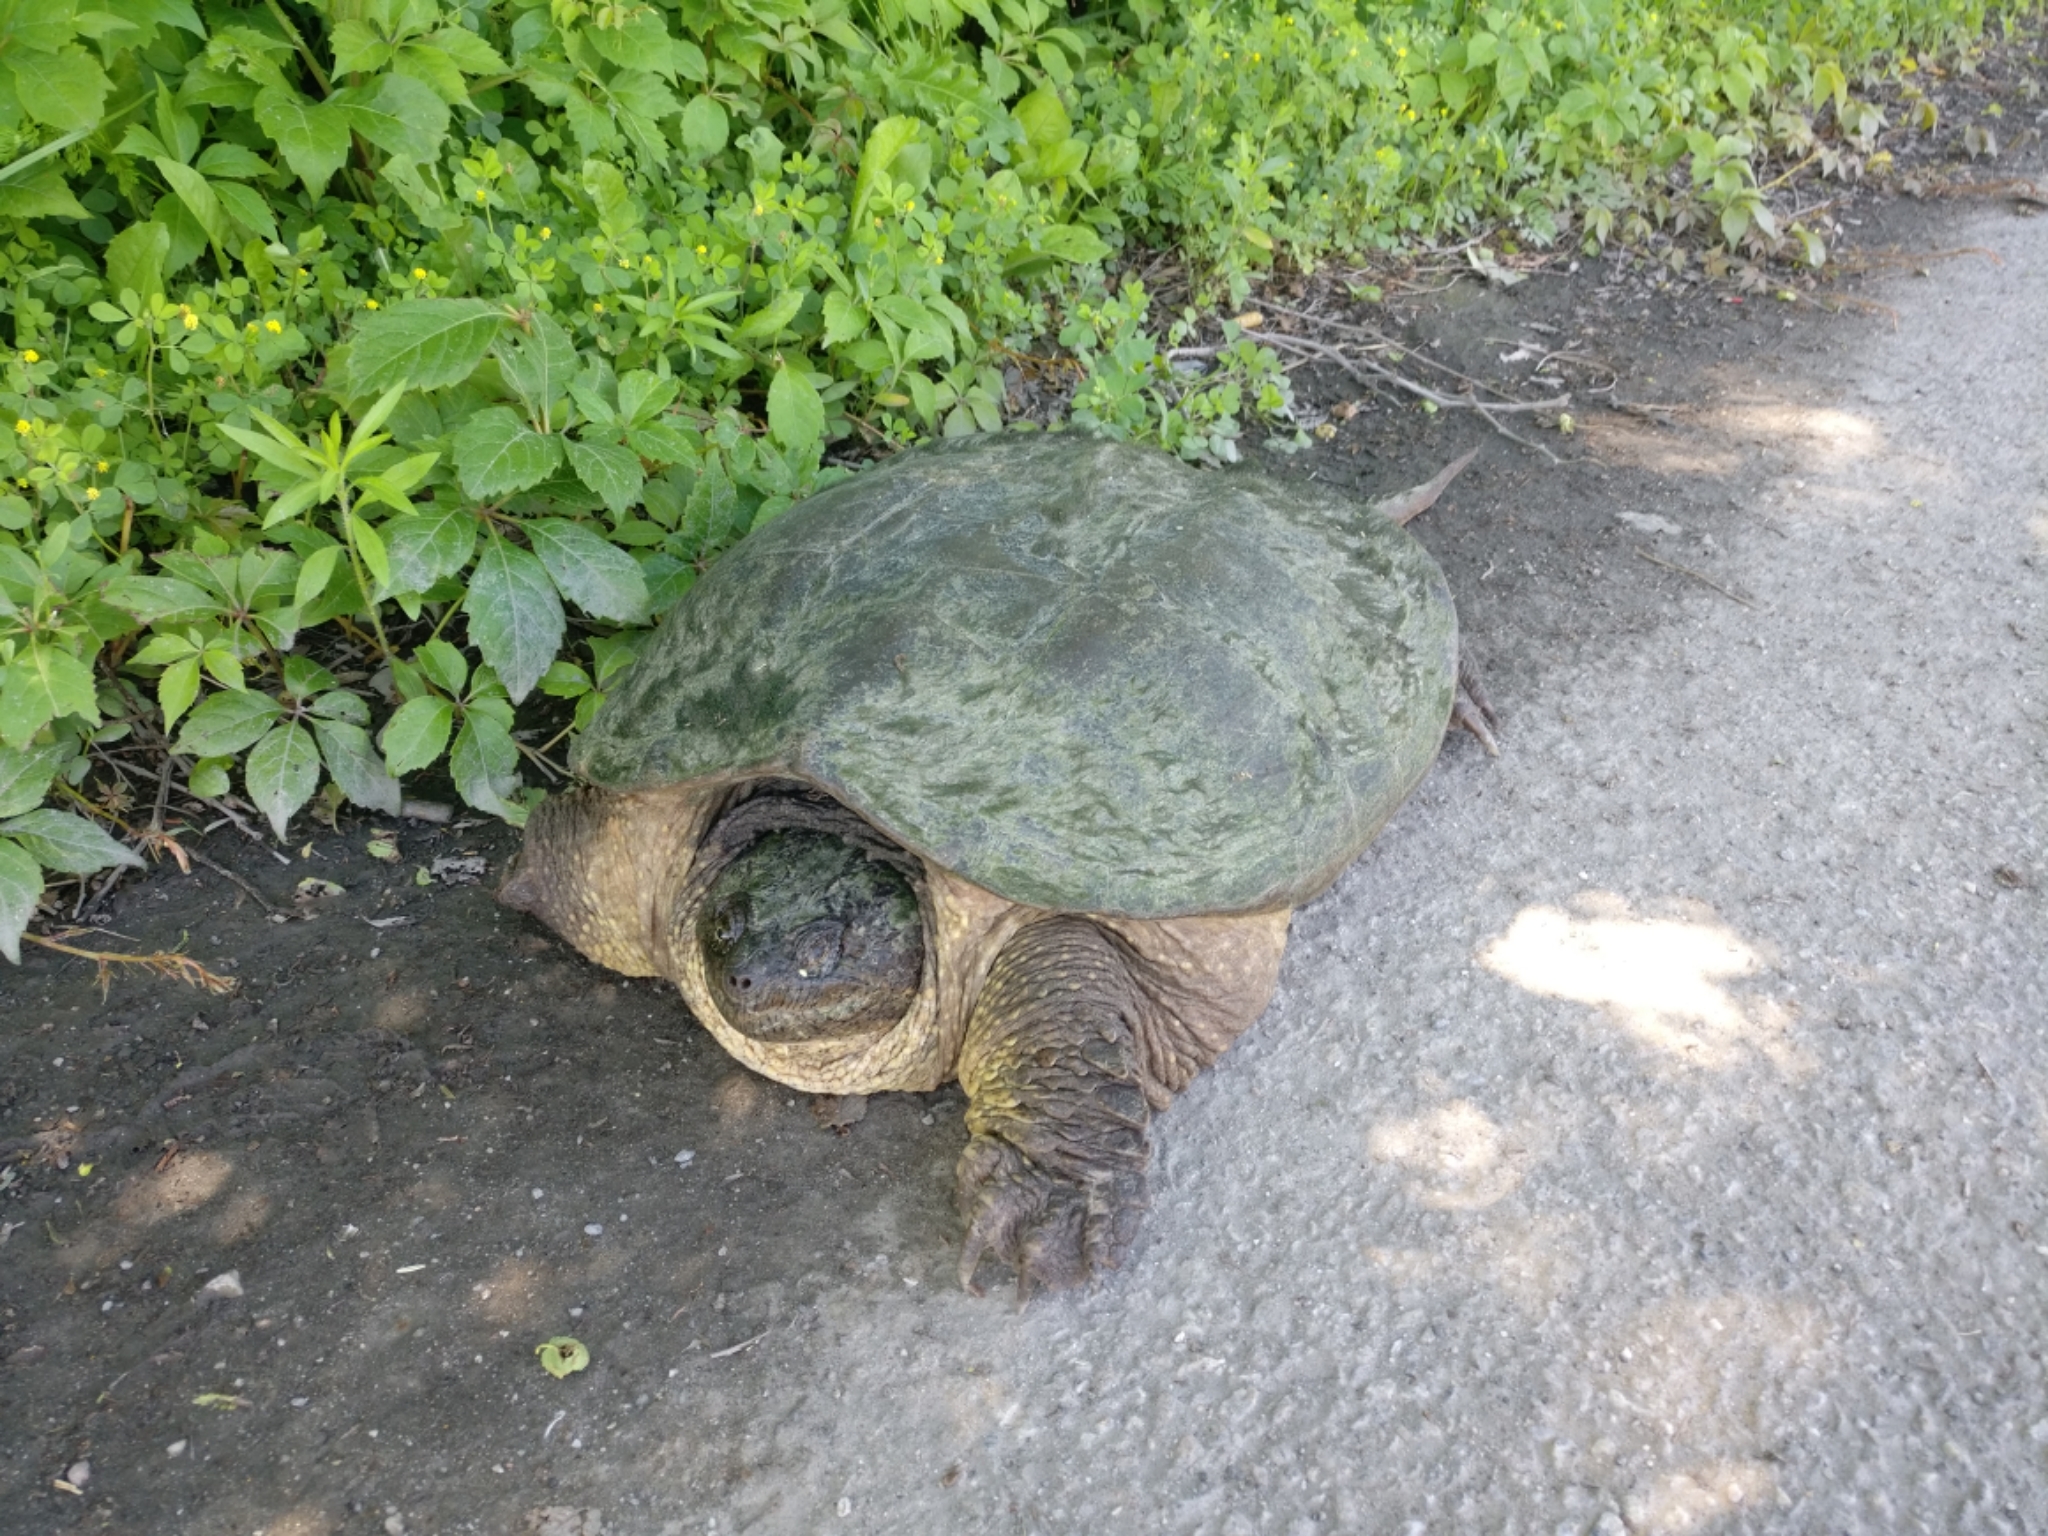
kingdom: Animalia
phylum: Chordata
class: Testudines
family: Chelydridae
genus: Chelydra
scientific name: Chelydra serpentina
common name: Common snapping turtle
